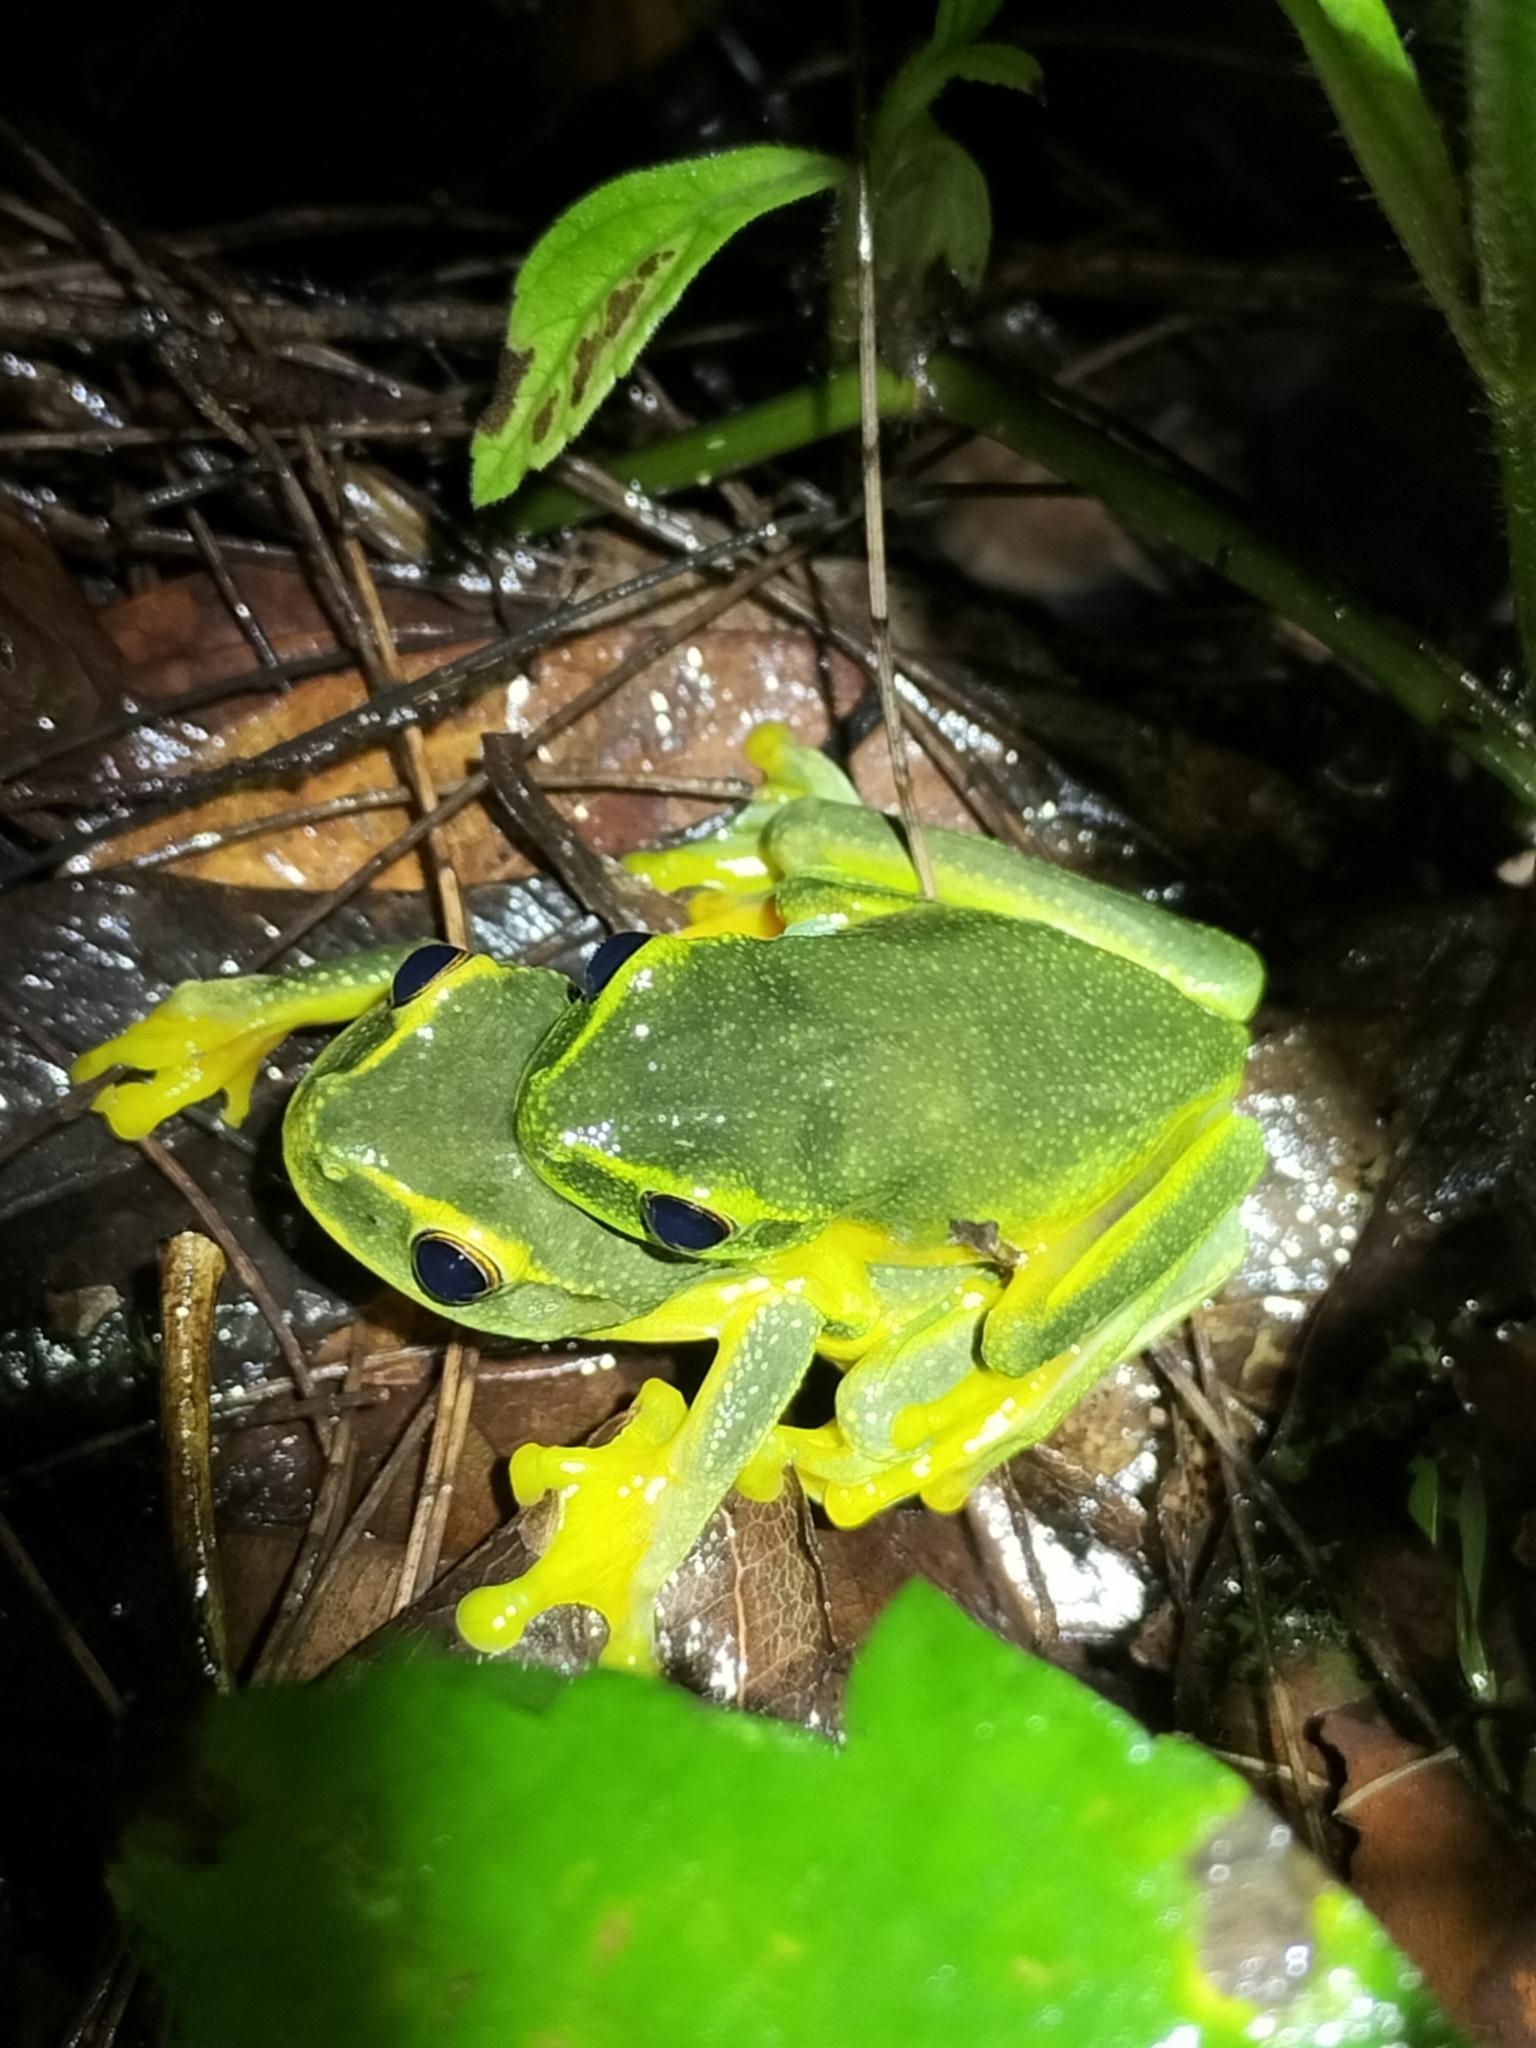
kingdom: Animalia
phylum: Chordata
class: Amphibia
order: Anura
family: Pelodryadidae
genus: Ranoidea
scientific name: Ranoidea gracilenta
